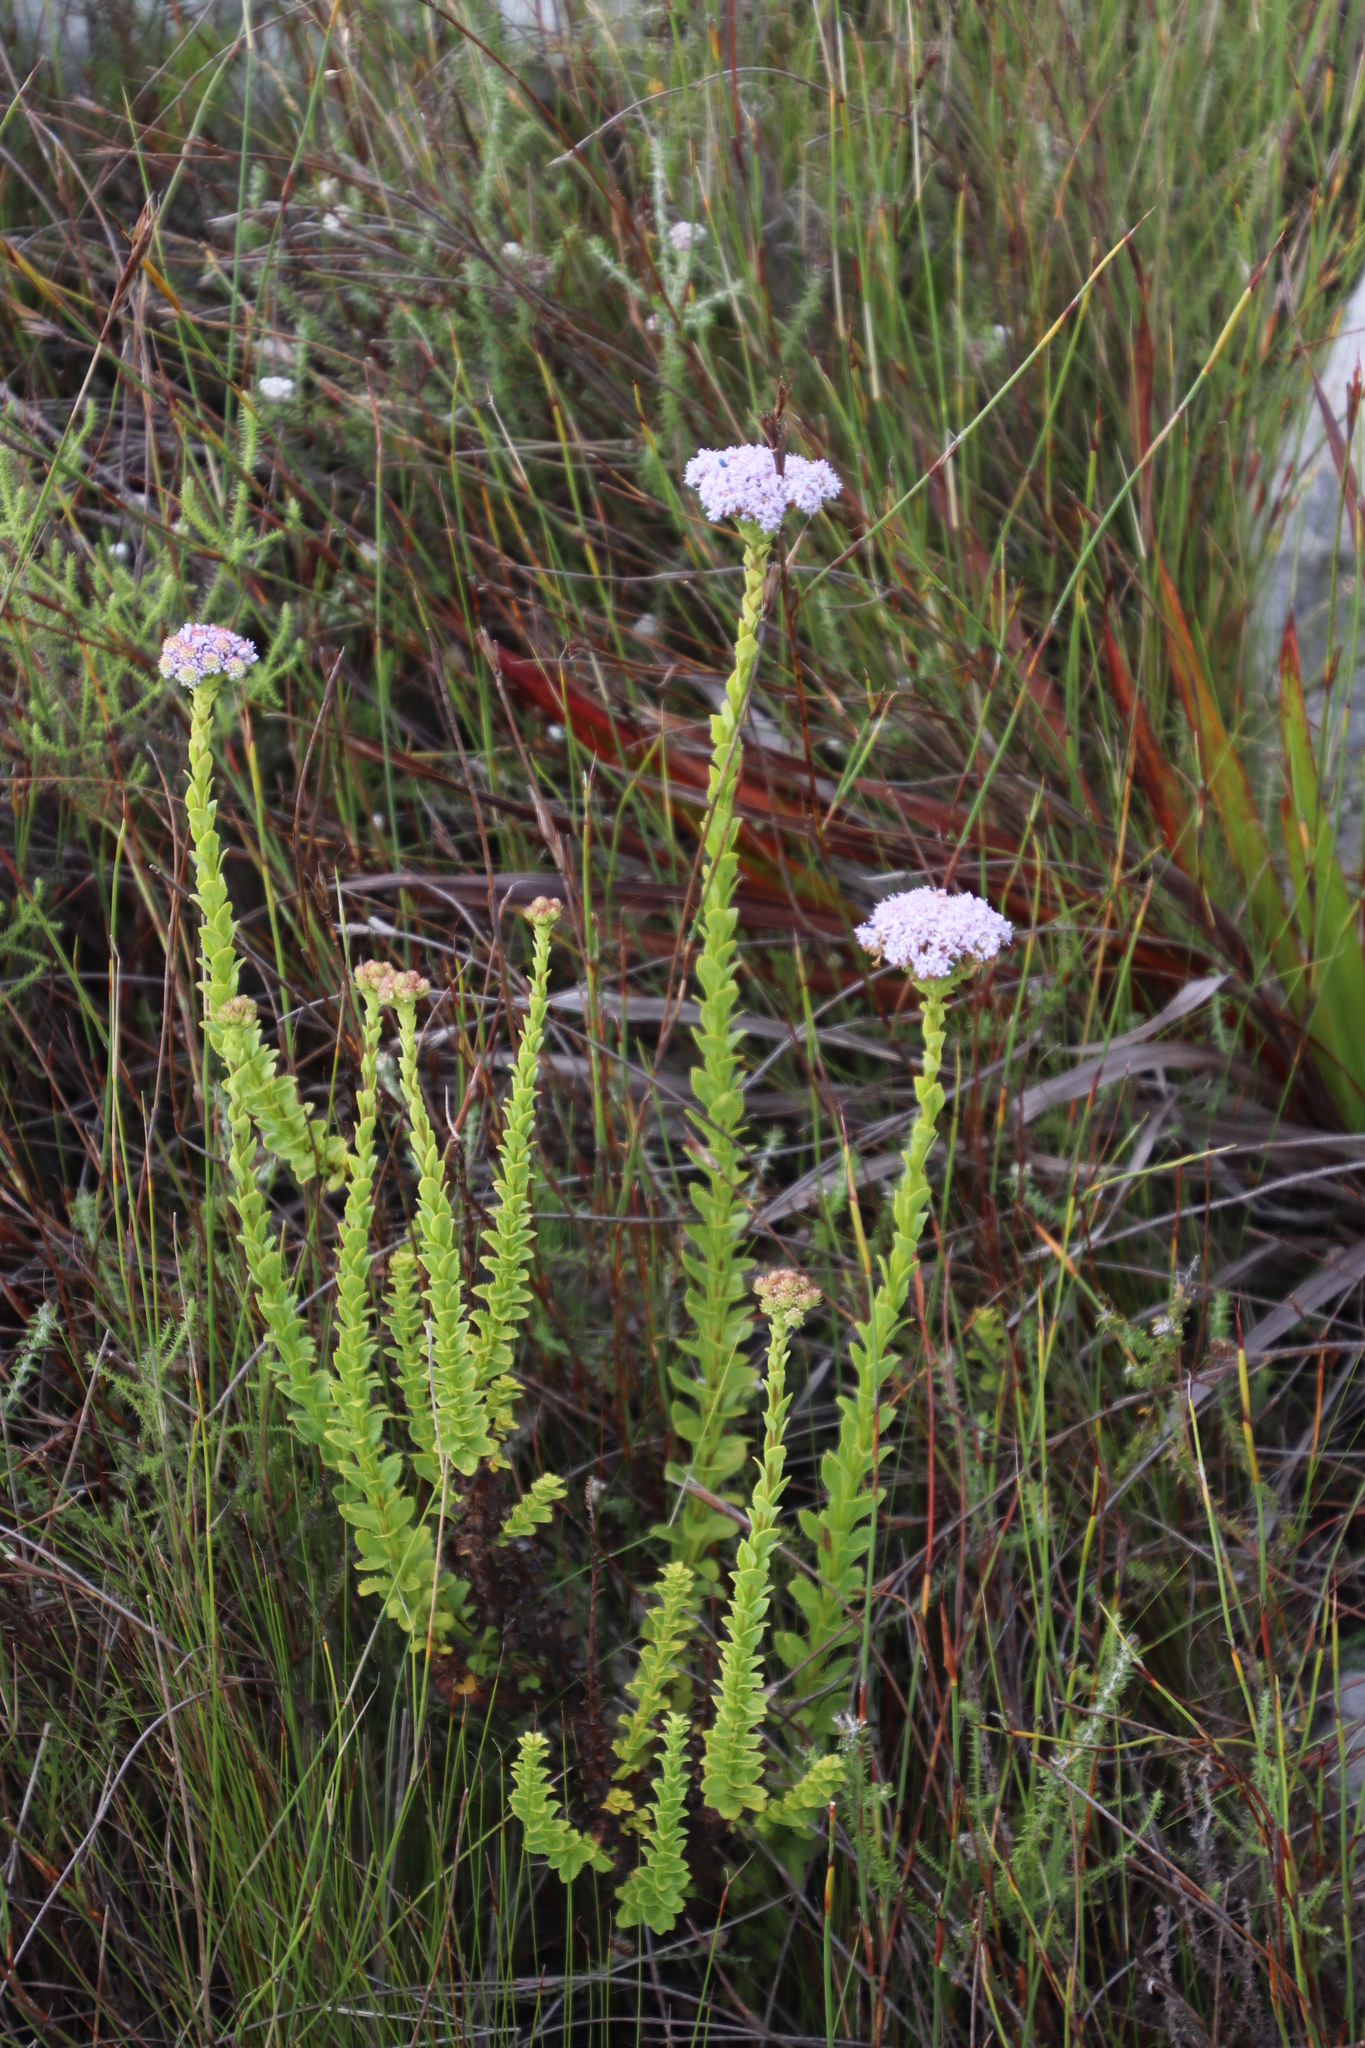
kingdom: Plantae
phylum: Tracheophyta
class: Magnoliopsida
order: Lamiales
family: Scrophulariaceae
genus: Pseudoselago
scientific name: Pseudoselago serrata
